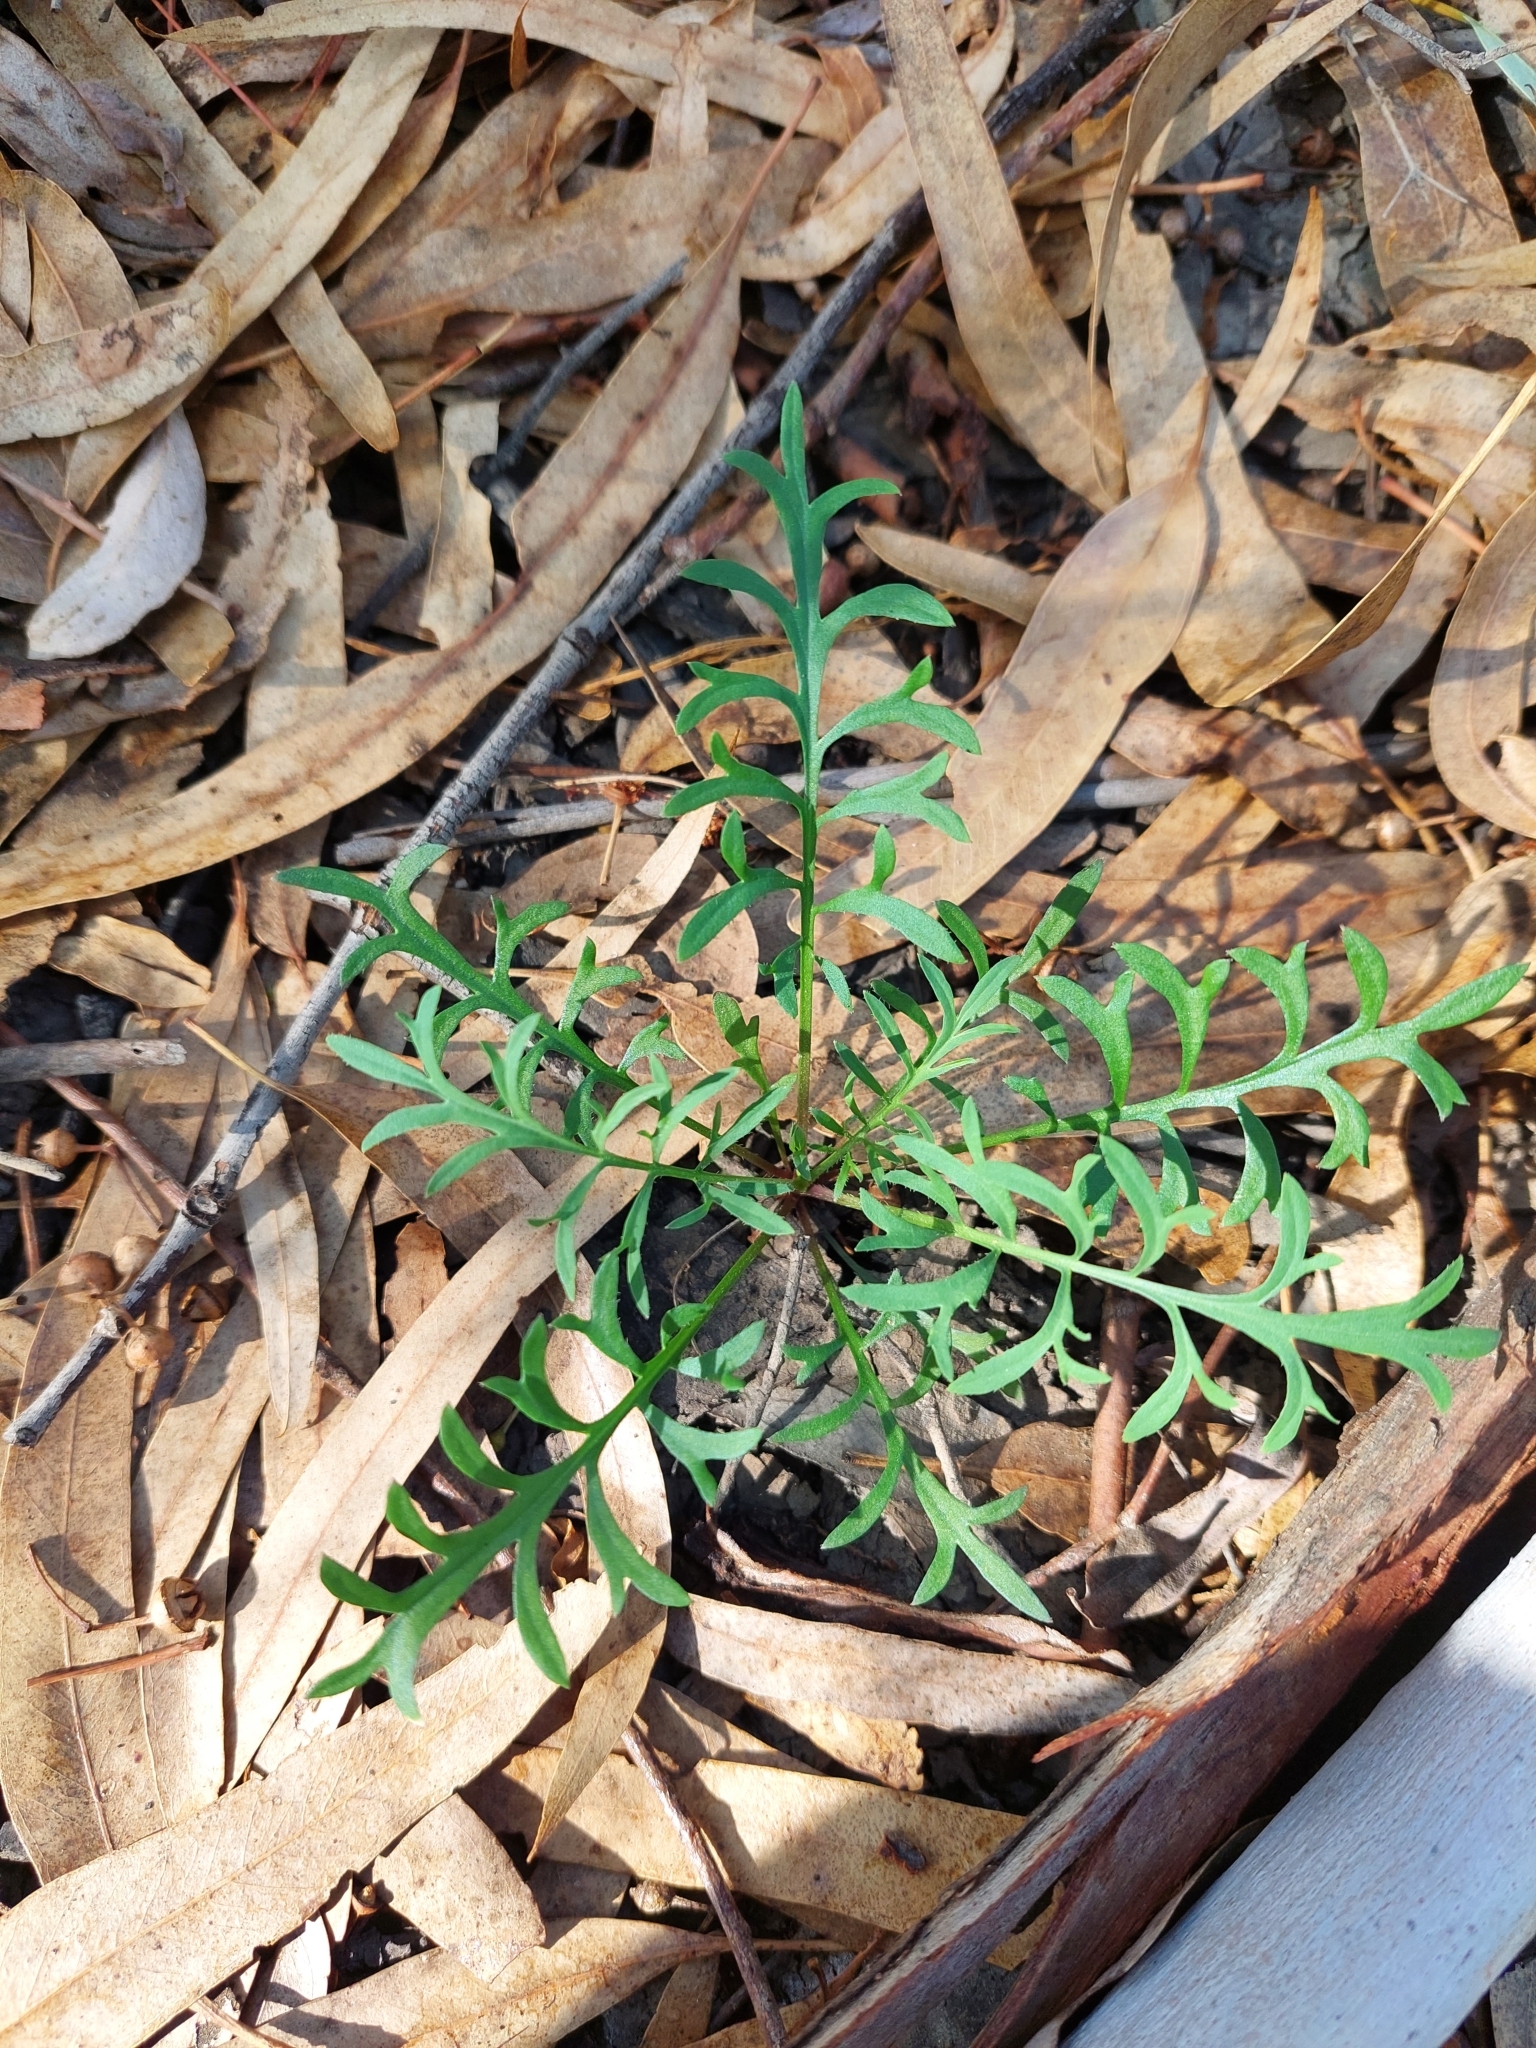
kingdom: Plantae
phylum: Tracheophyta
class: Magnoliopsida
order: Brassicales
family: Brassicaceae
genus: Lepidium
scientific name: Lepidium pseudohyssopifolium
